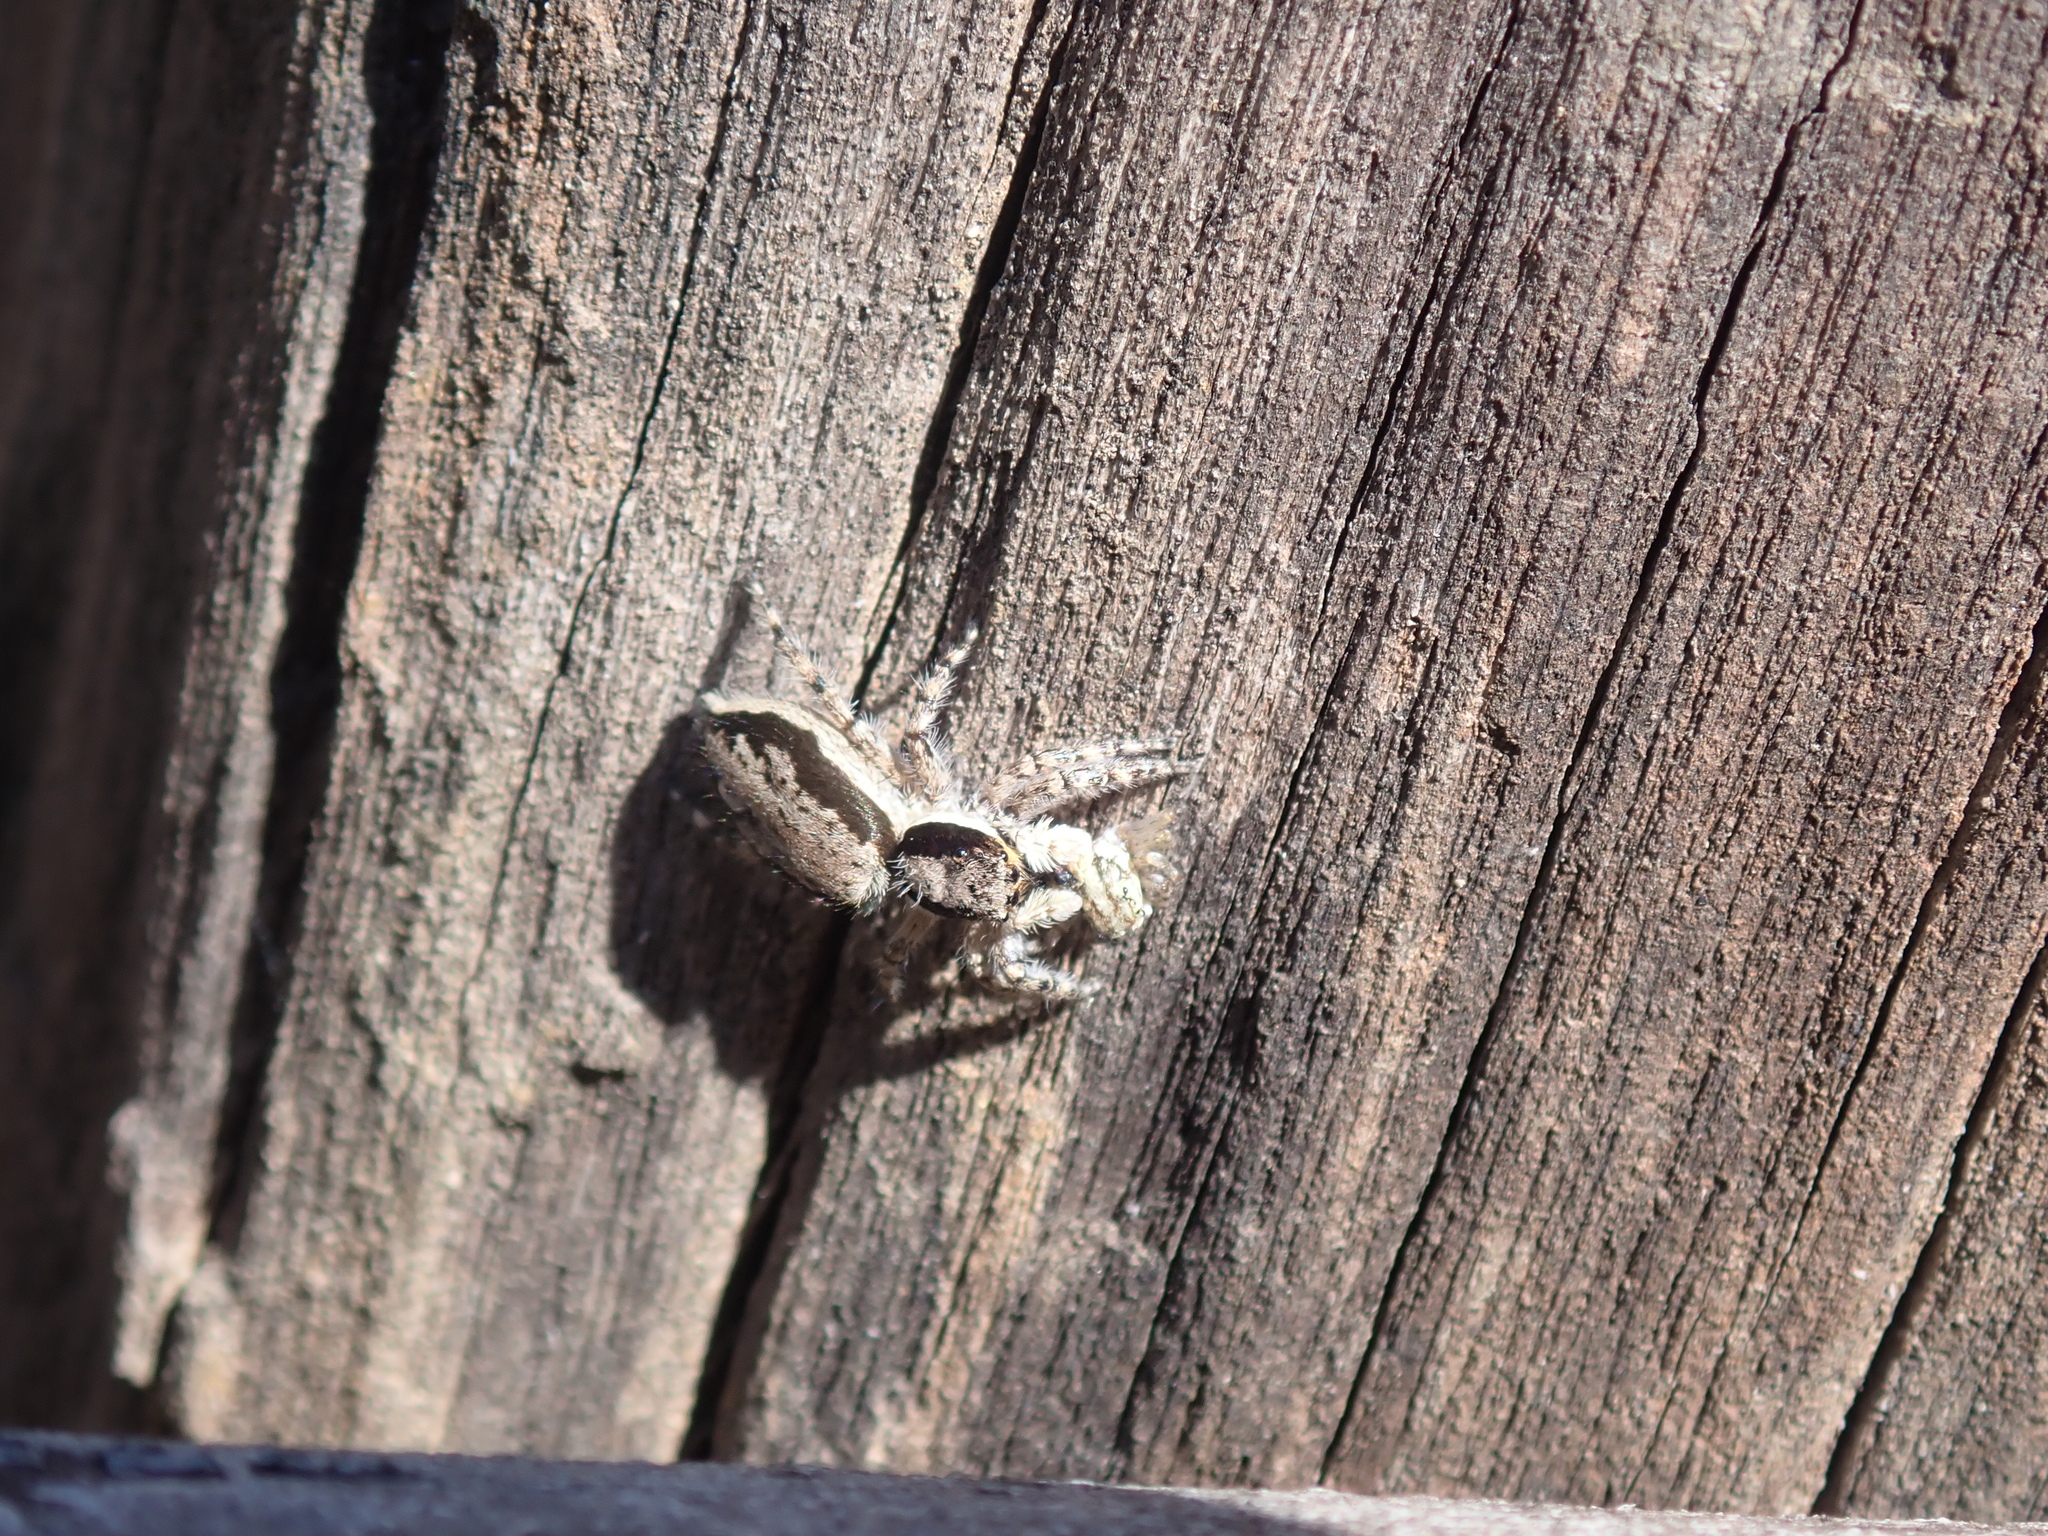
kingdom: Animalia
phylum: Arthropoda
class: Arachnida
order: Araneae
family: Salticidae
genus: Menemerus
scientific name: Menemerus bivittatus
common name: Gray wall jumper
